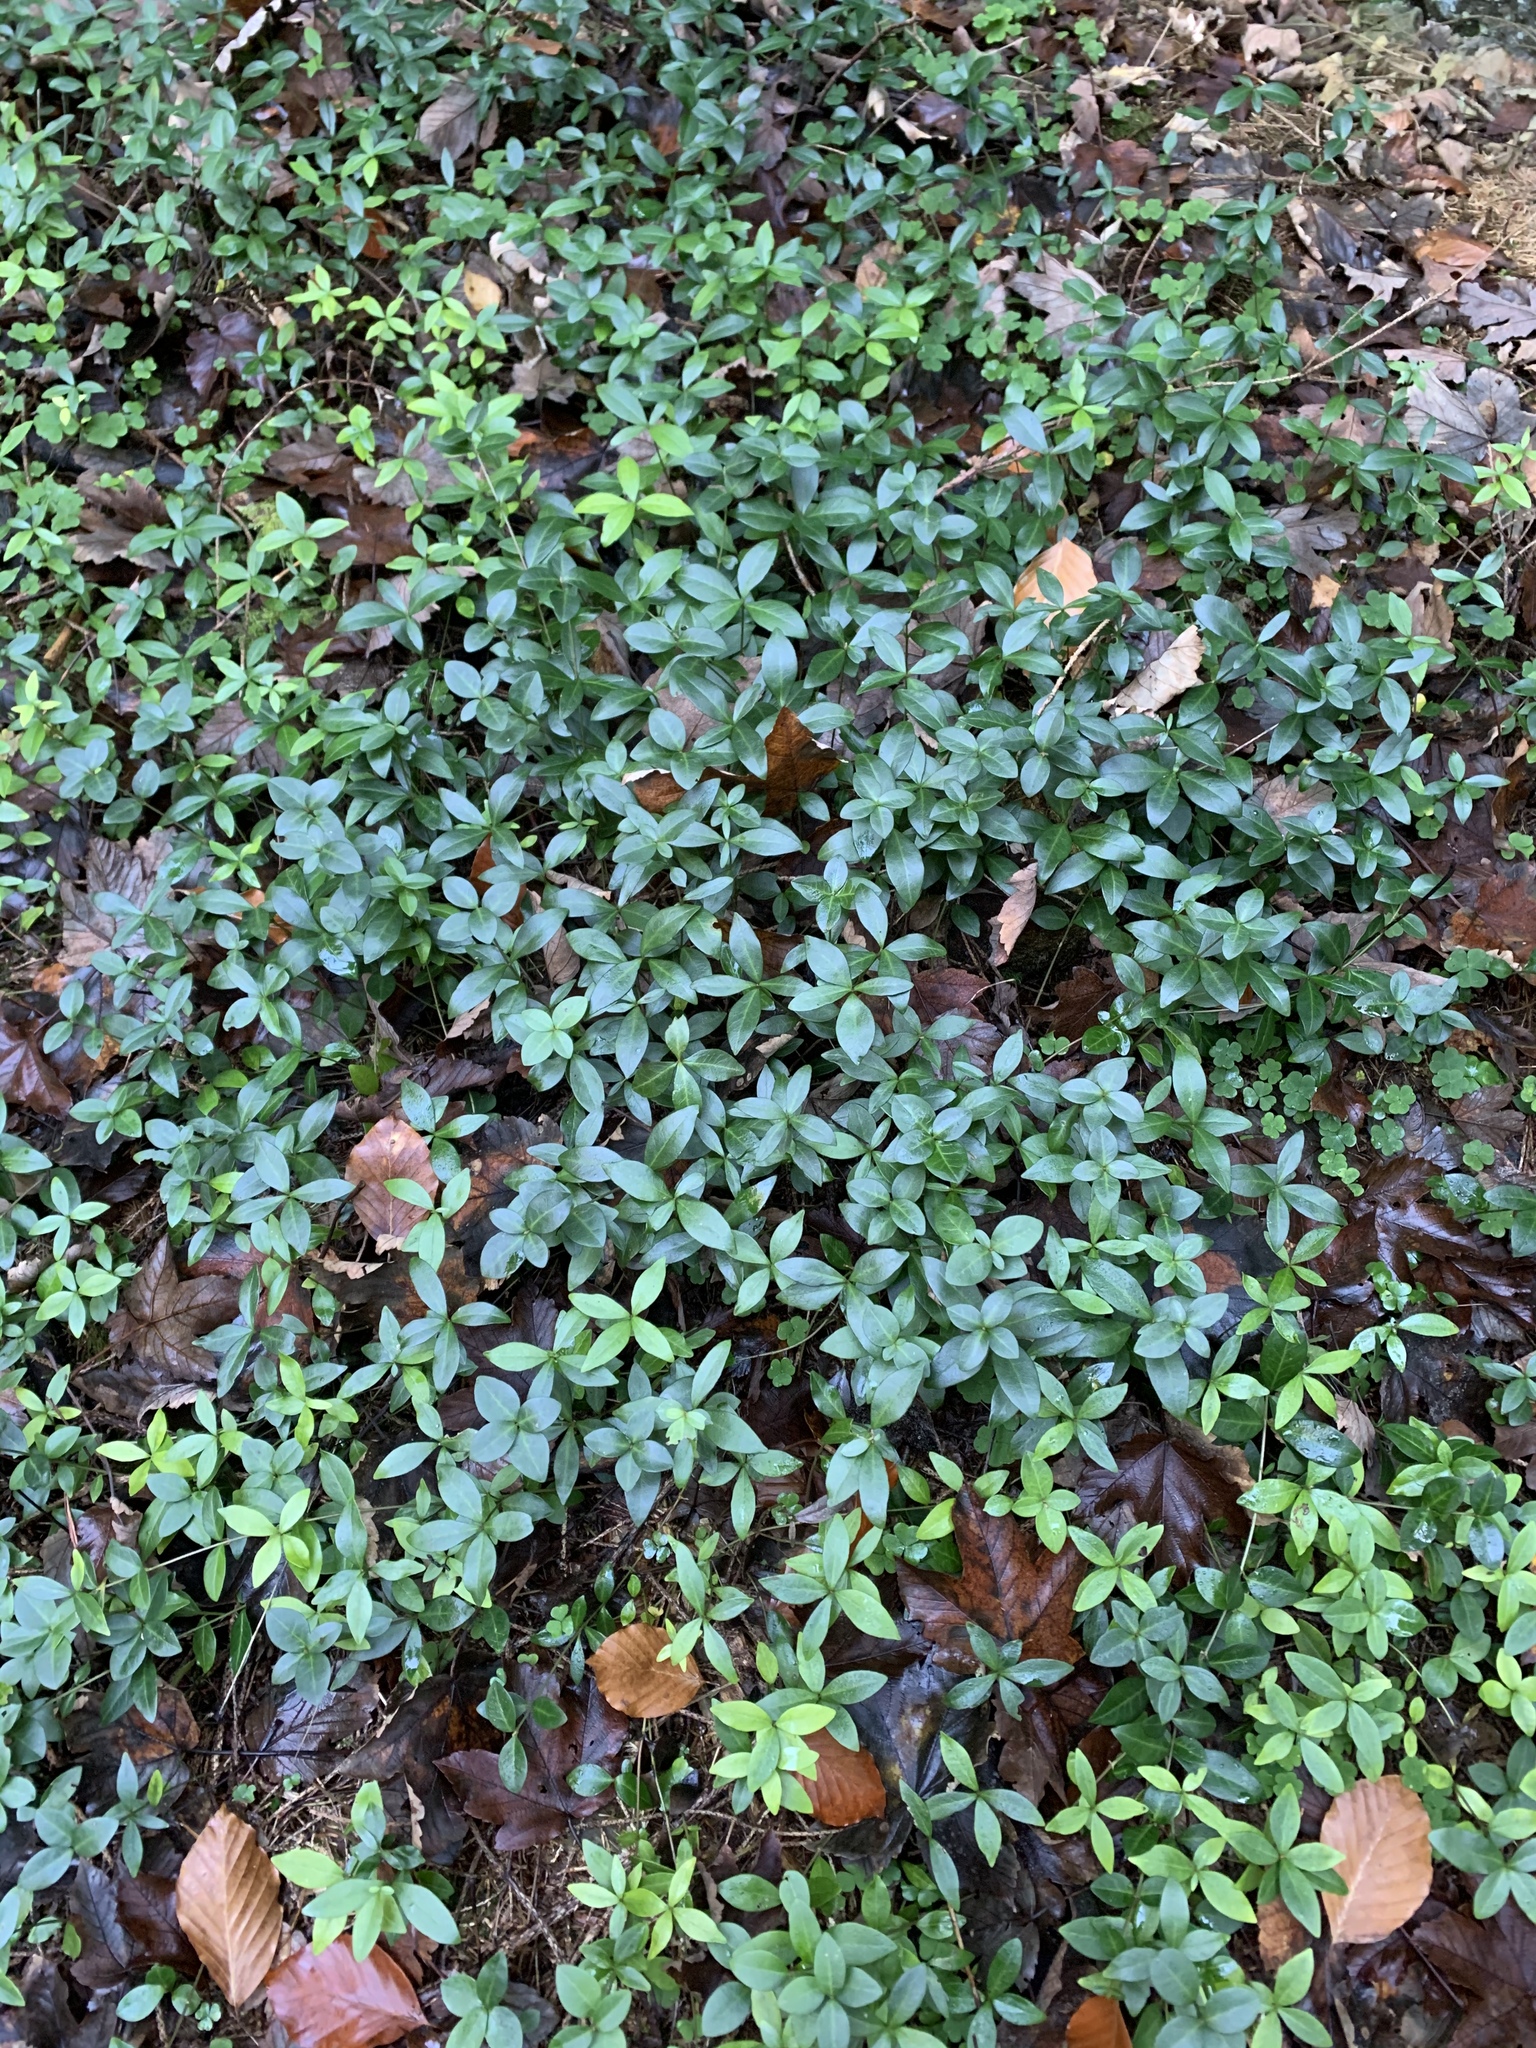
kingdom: Plantae
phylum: Tracheophyta
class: Magnoliopsida
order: Gentianales
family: Apocynaceae
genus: Vinca
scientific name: Vinca minor
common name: Lesser periwinkle
